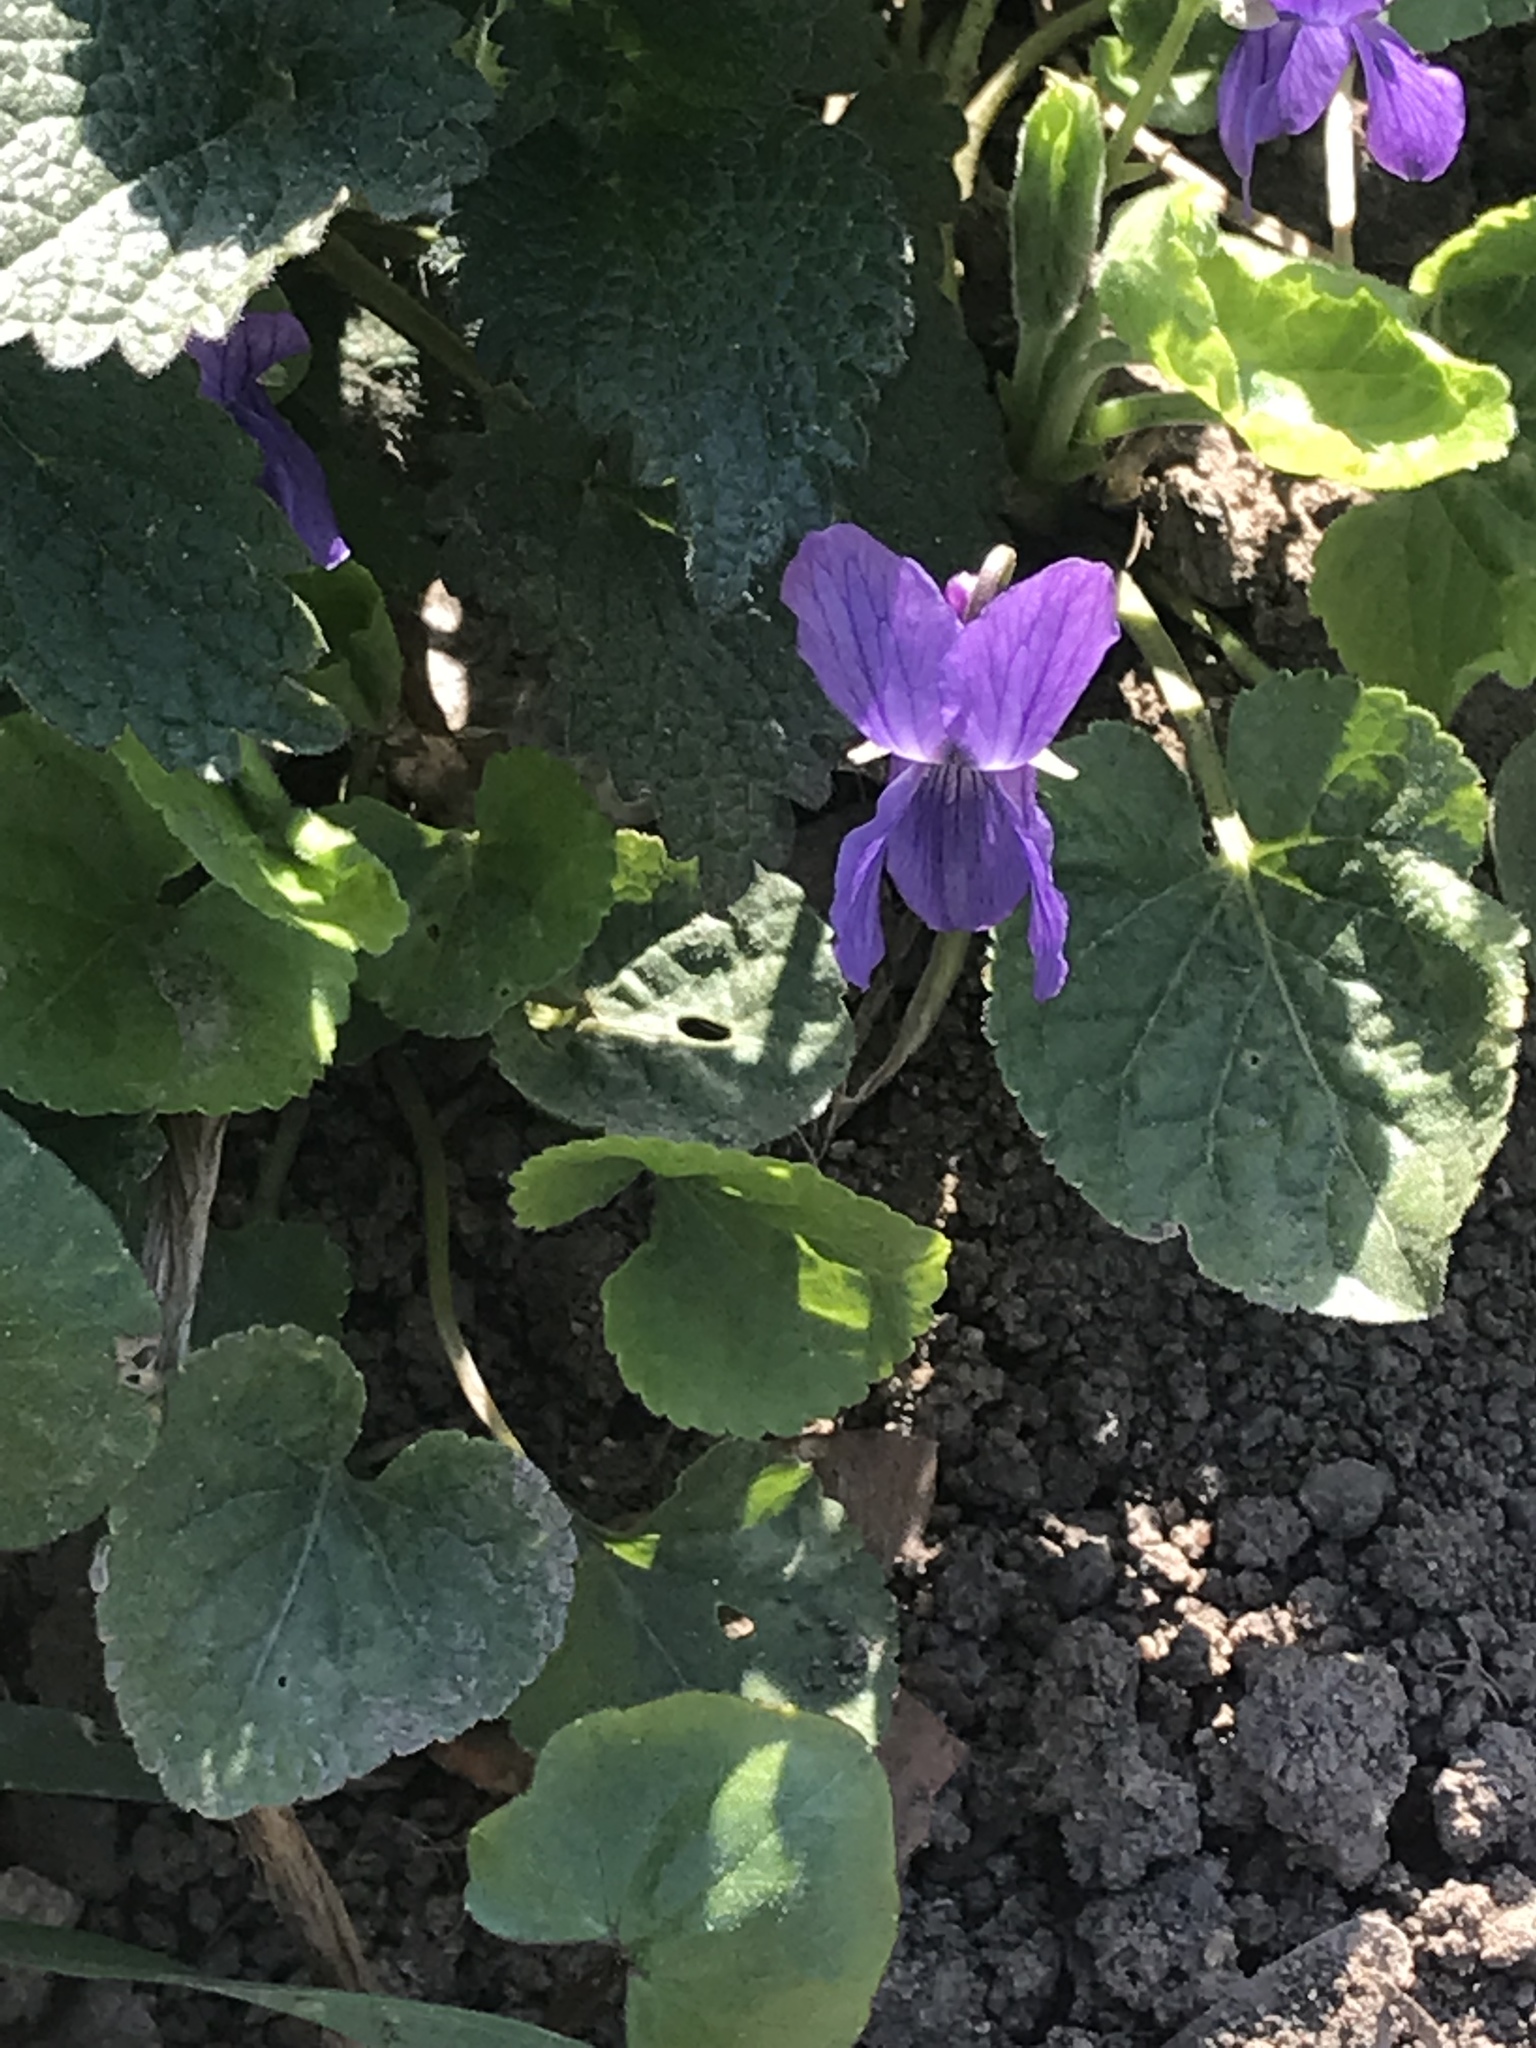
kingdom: Plantae
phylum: Tracheophyta
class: Magnoliopsida
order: Malpighiales
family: Violaceae
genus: Viola
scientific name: Viola odorata
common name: Sweet violet
